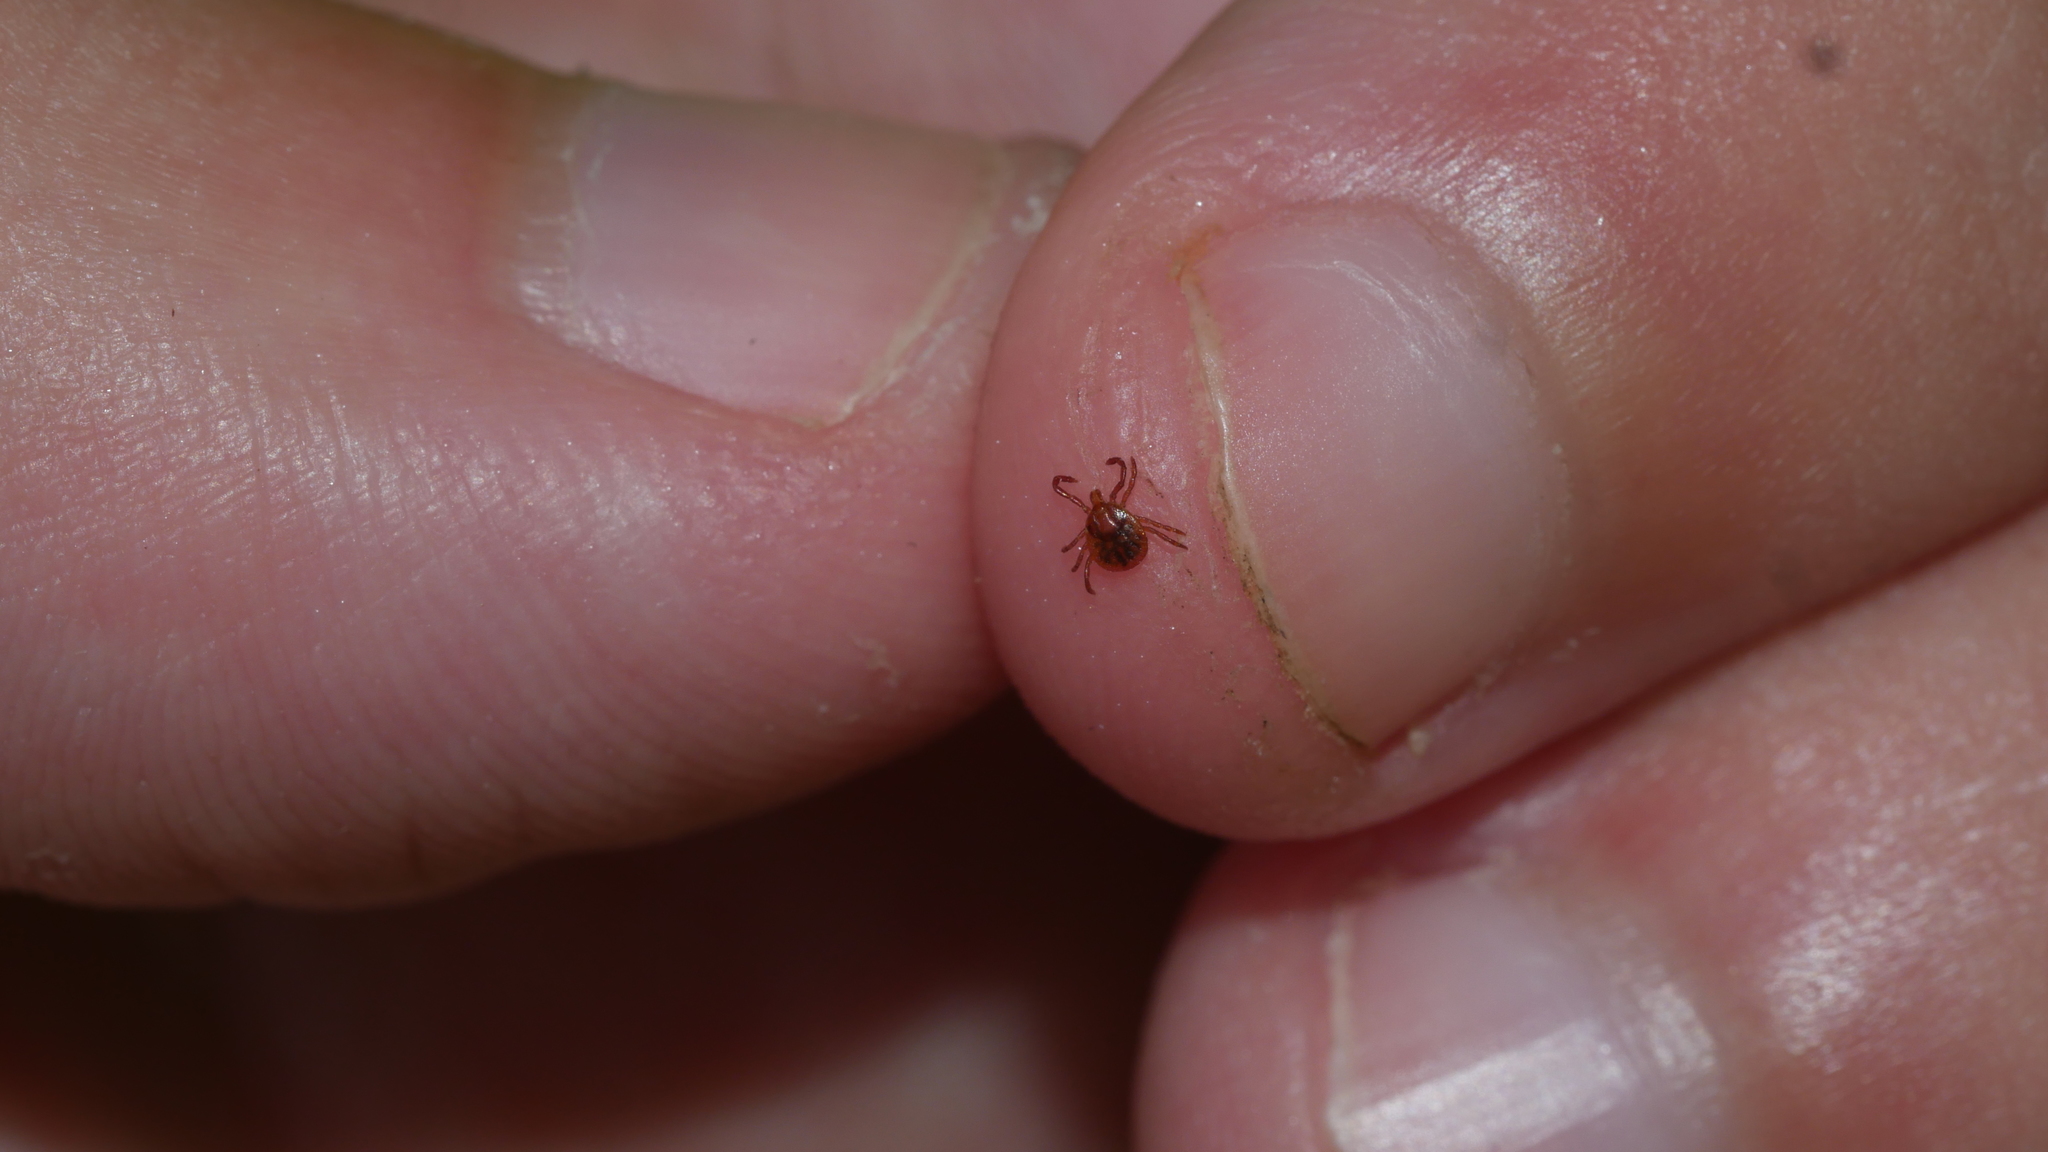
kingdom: Animalia
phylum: Arthropoda
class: Arachnida
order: Ixodida
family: Ixodidae
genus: Amblyomma
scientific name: Amblyomma americanum
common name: Lone star tick
